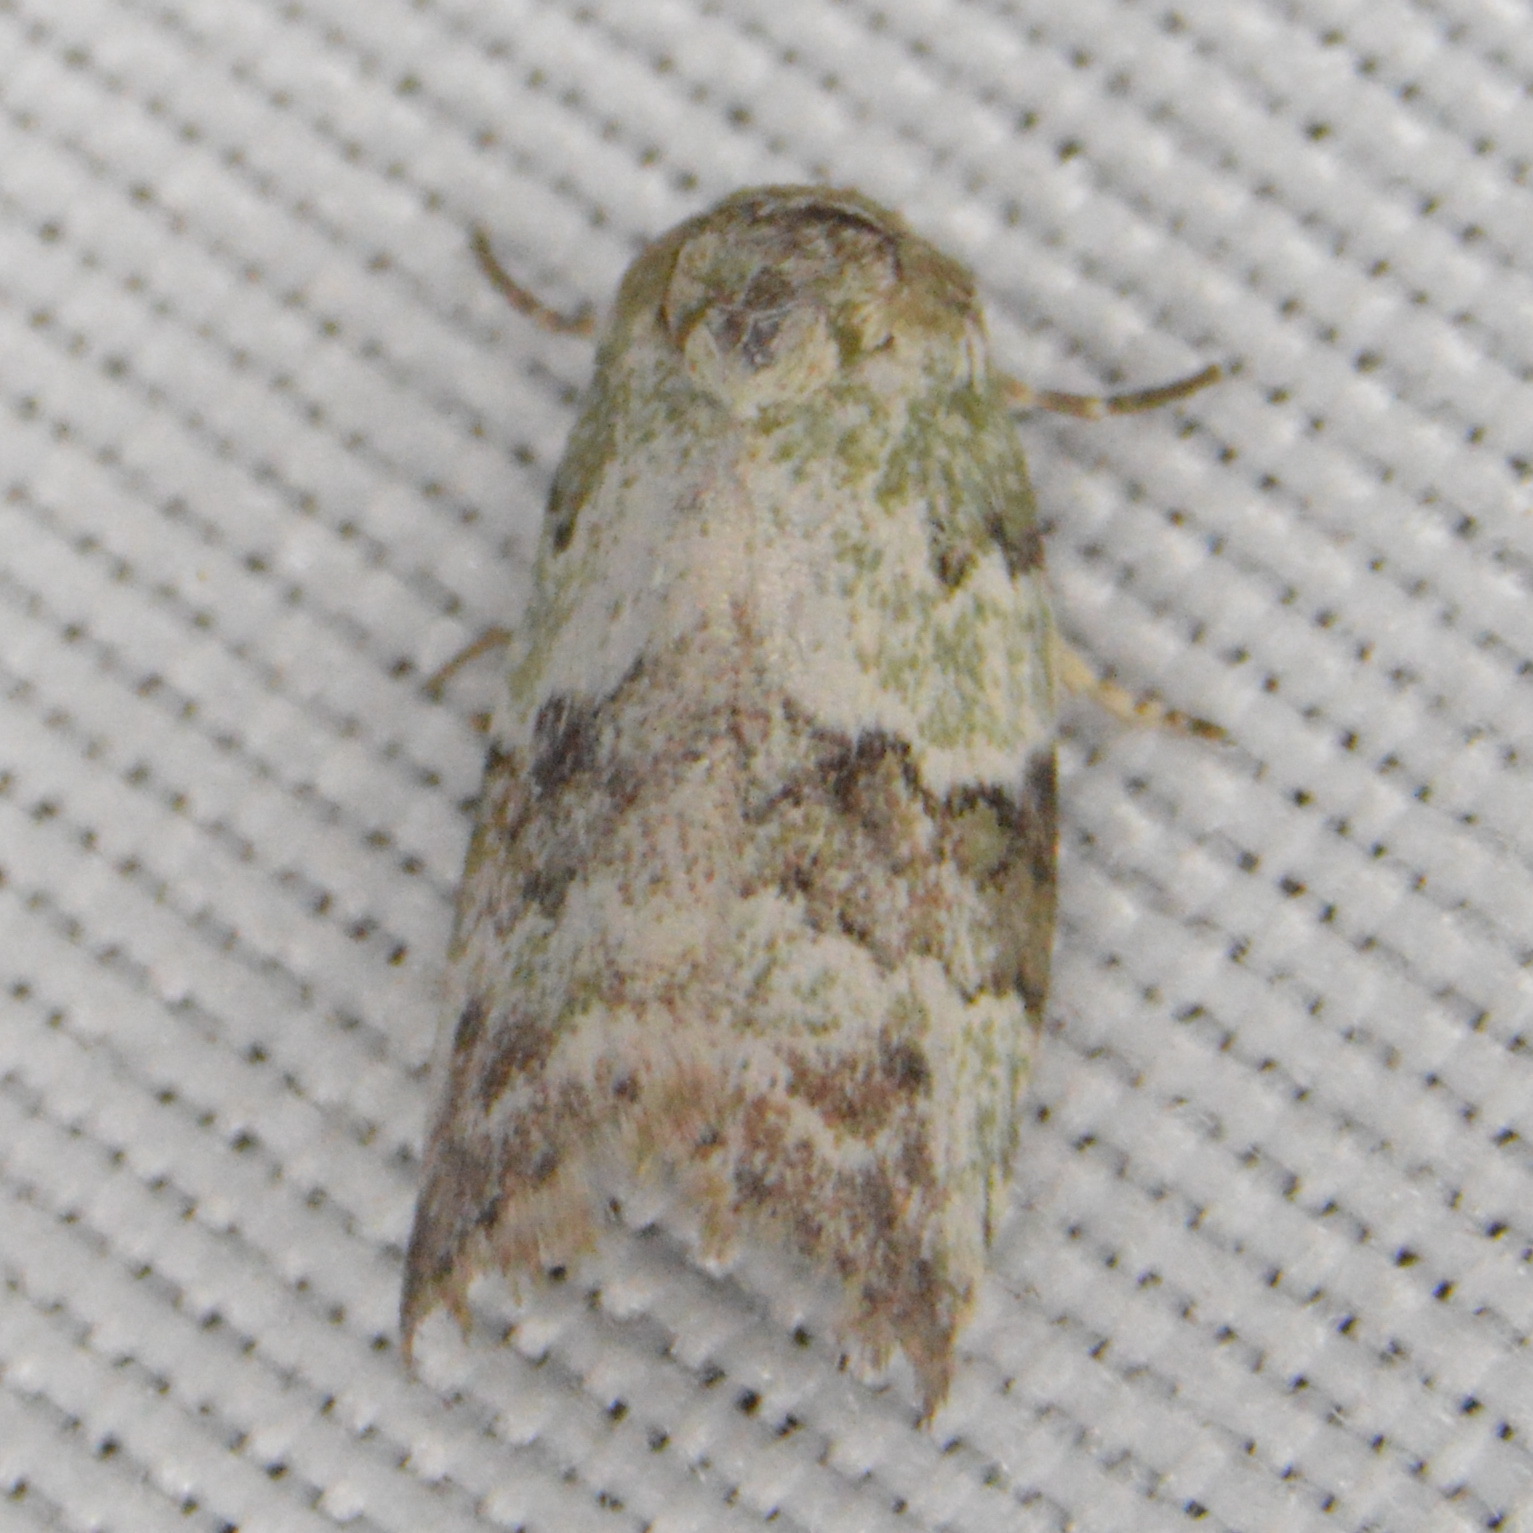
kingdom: Animalia
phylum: Arthropoda
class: Insecta
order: Lepidoptera
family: Nolidae
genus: Afrida
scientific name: Afrida ydatodes
